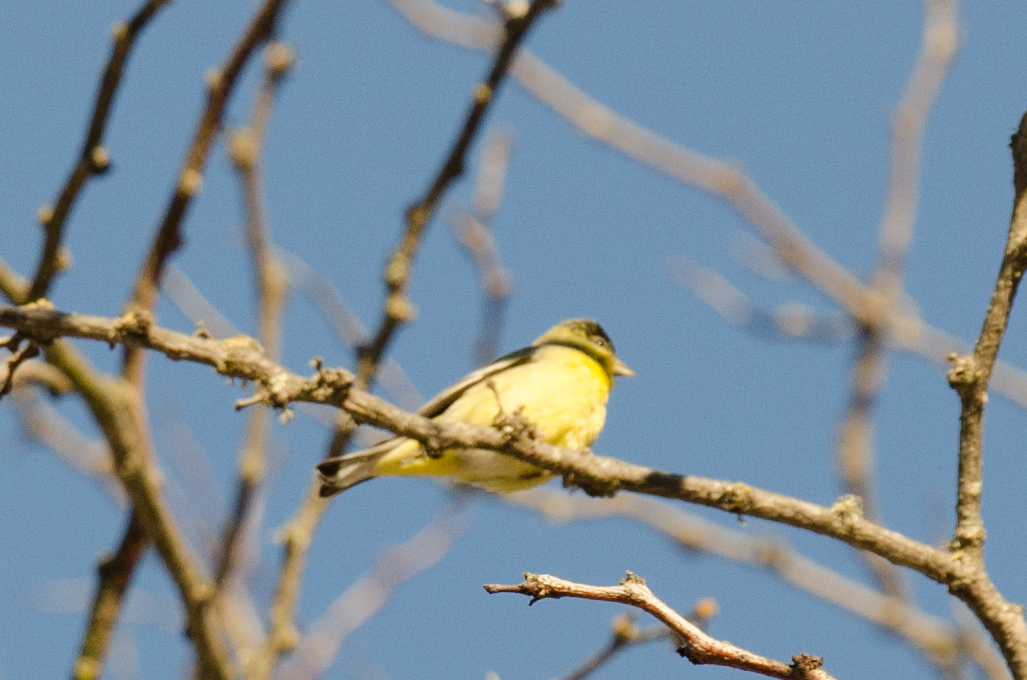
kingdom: Animalia
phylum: Chordata
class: Aves
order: Passeriformes
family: Fringillidae
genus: Spinus
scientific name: Spinus psaltria
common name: Lesser goldfinch
